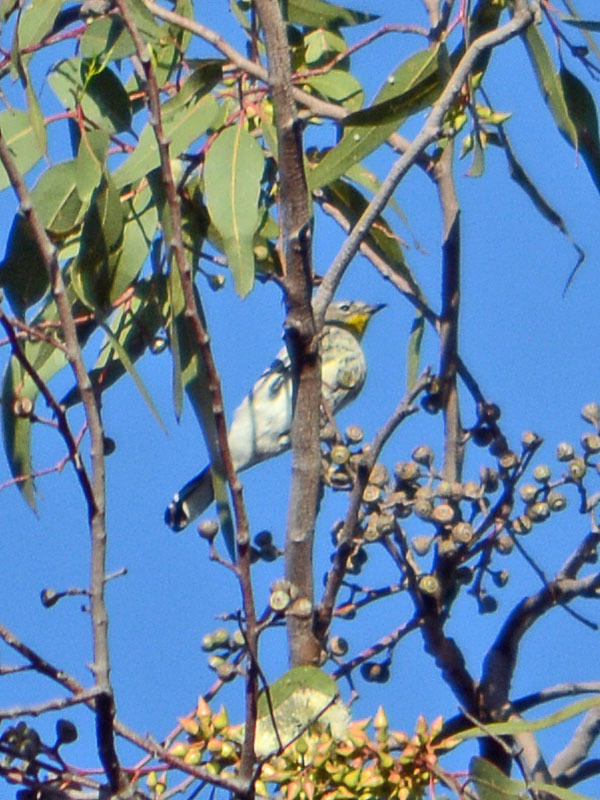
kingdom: Animalia
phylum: Chordata
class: Aves
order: Passeriformes
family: Parulidae
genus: Setophaga
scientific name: Setophaga coronata
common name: Myrtle warbler
